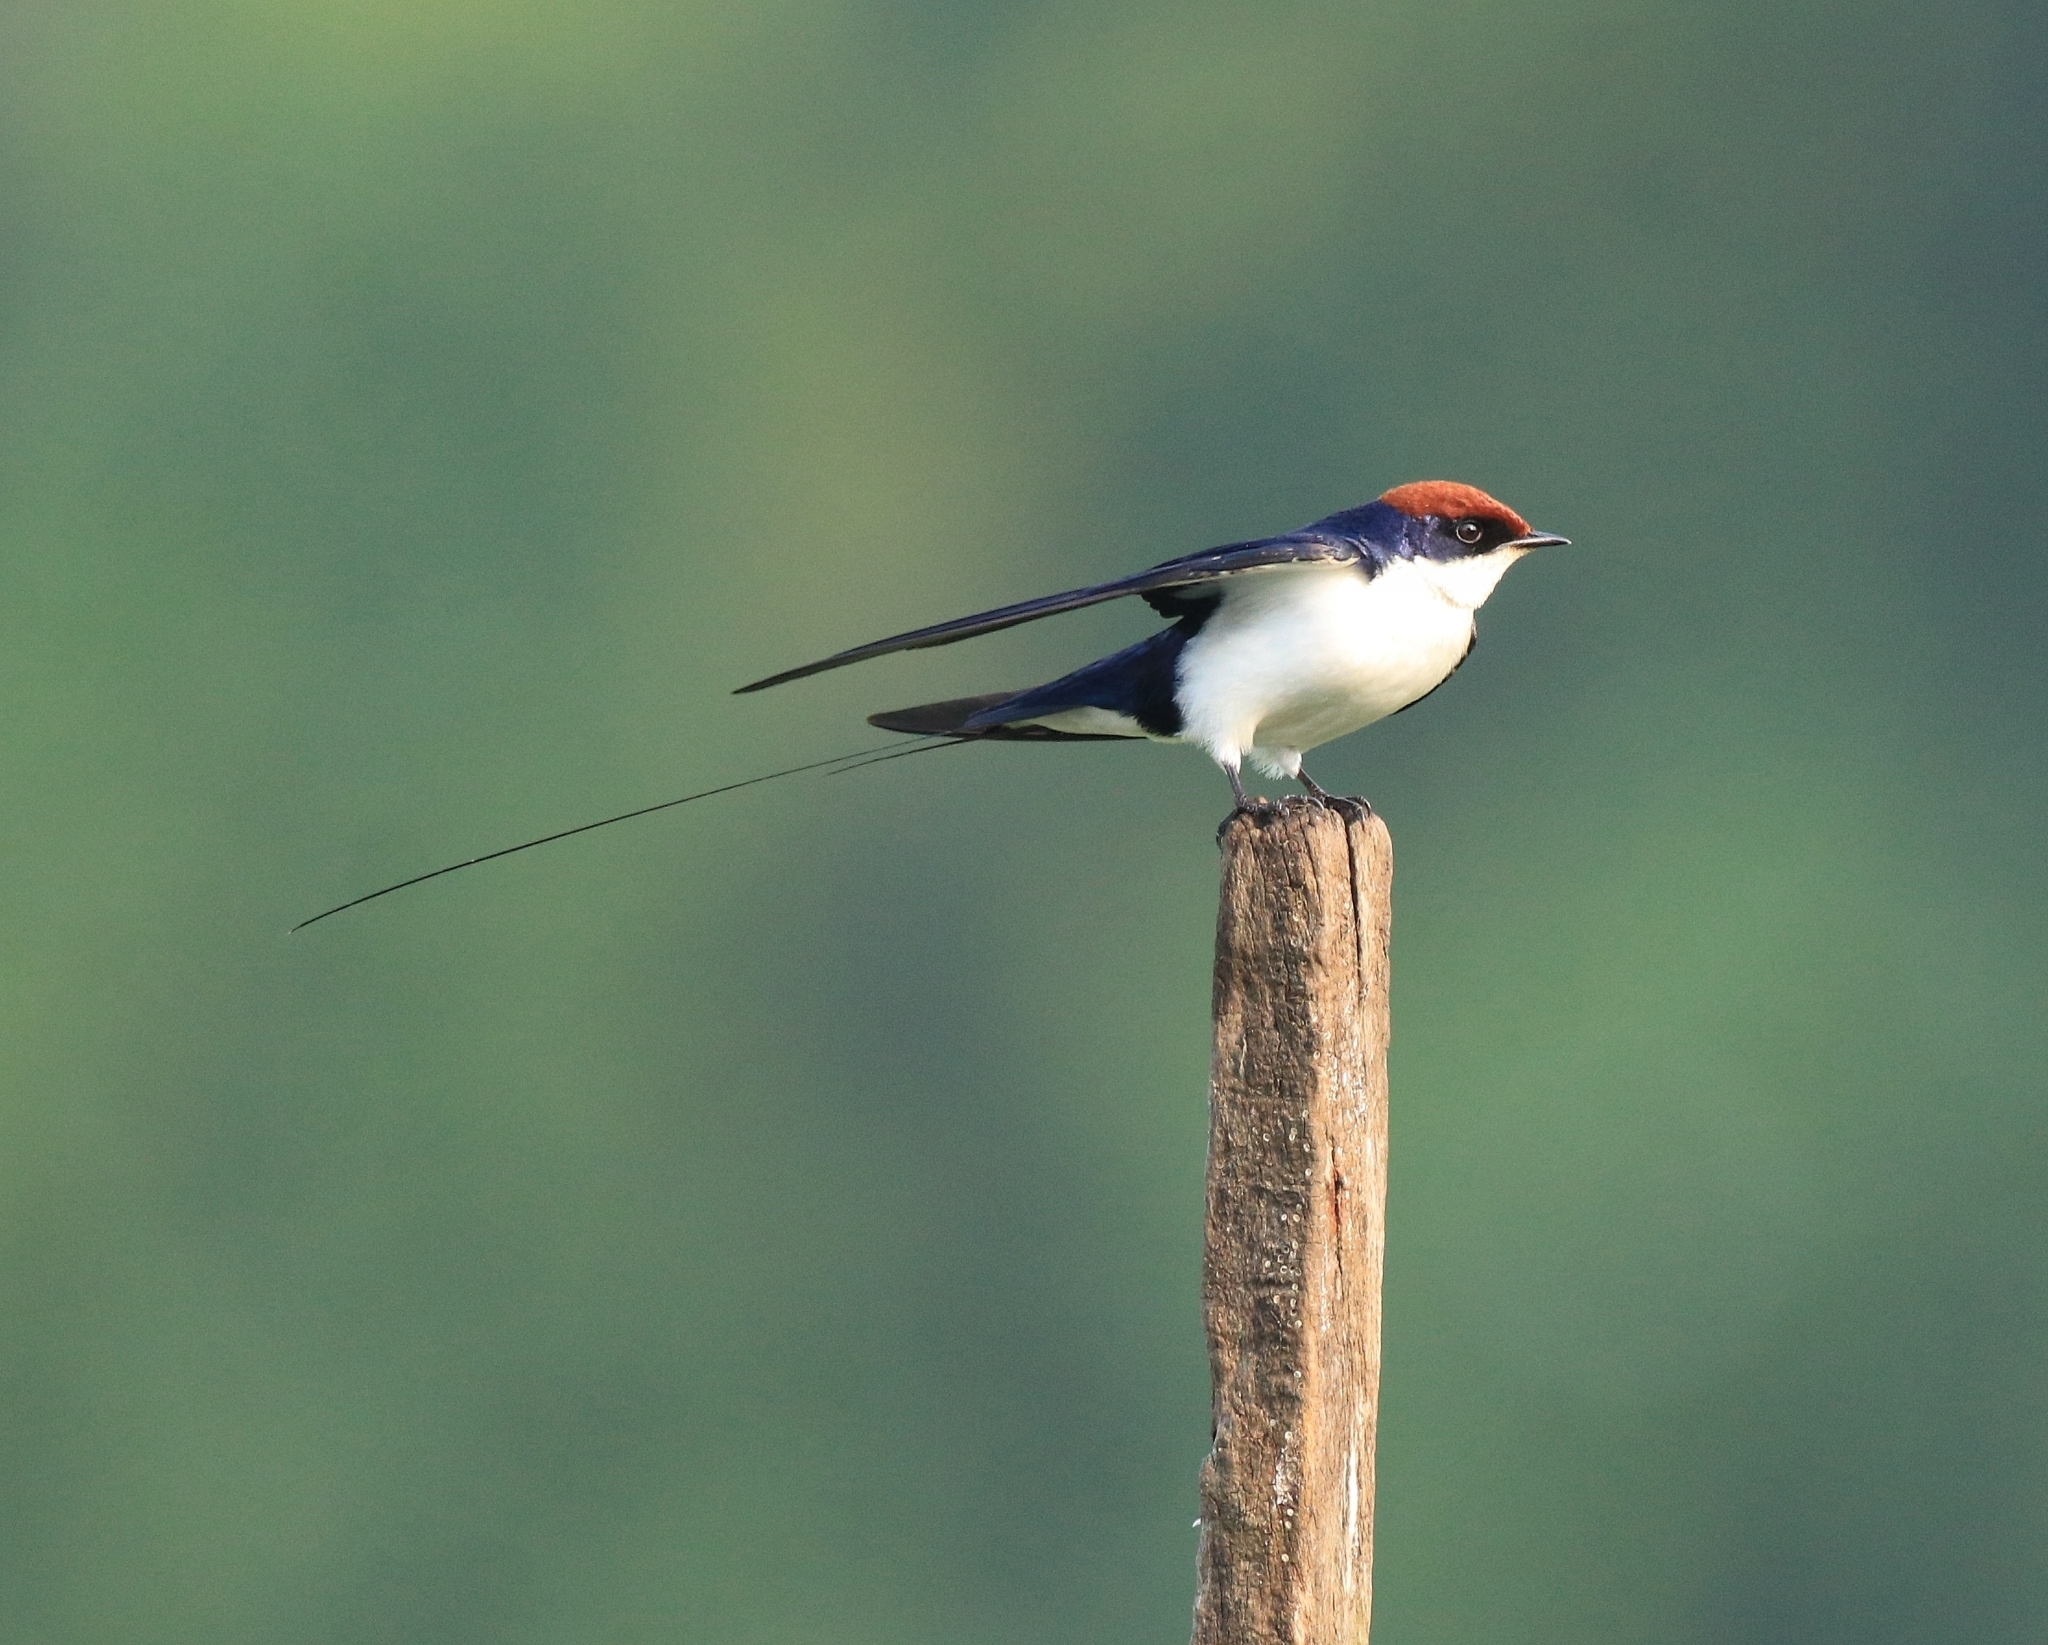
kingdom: Animalia
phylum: Chordata
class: Aves
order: Passeriformes
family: Hirundinidae
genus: Hirundo
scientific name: Hirundo smithii
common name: Wire-tailed swallow
